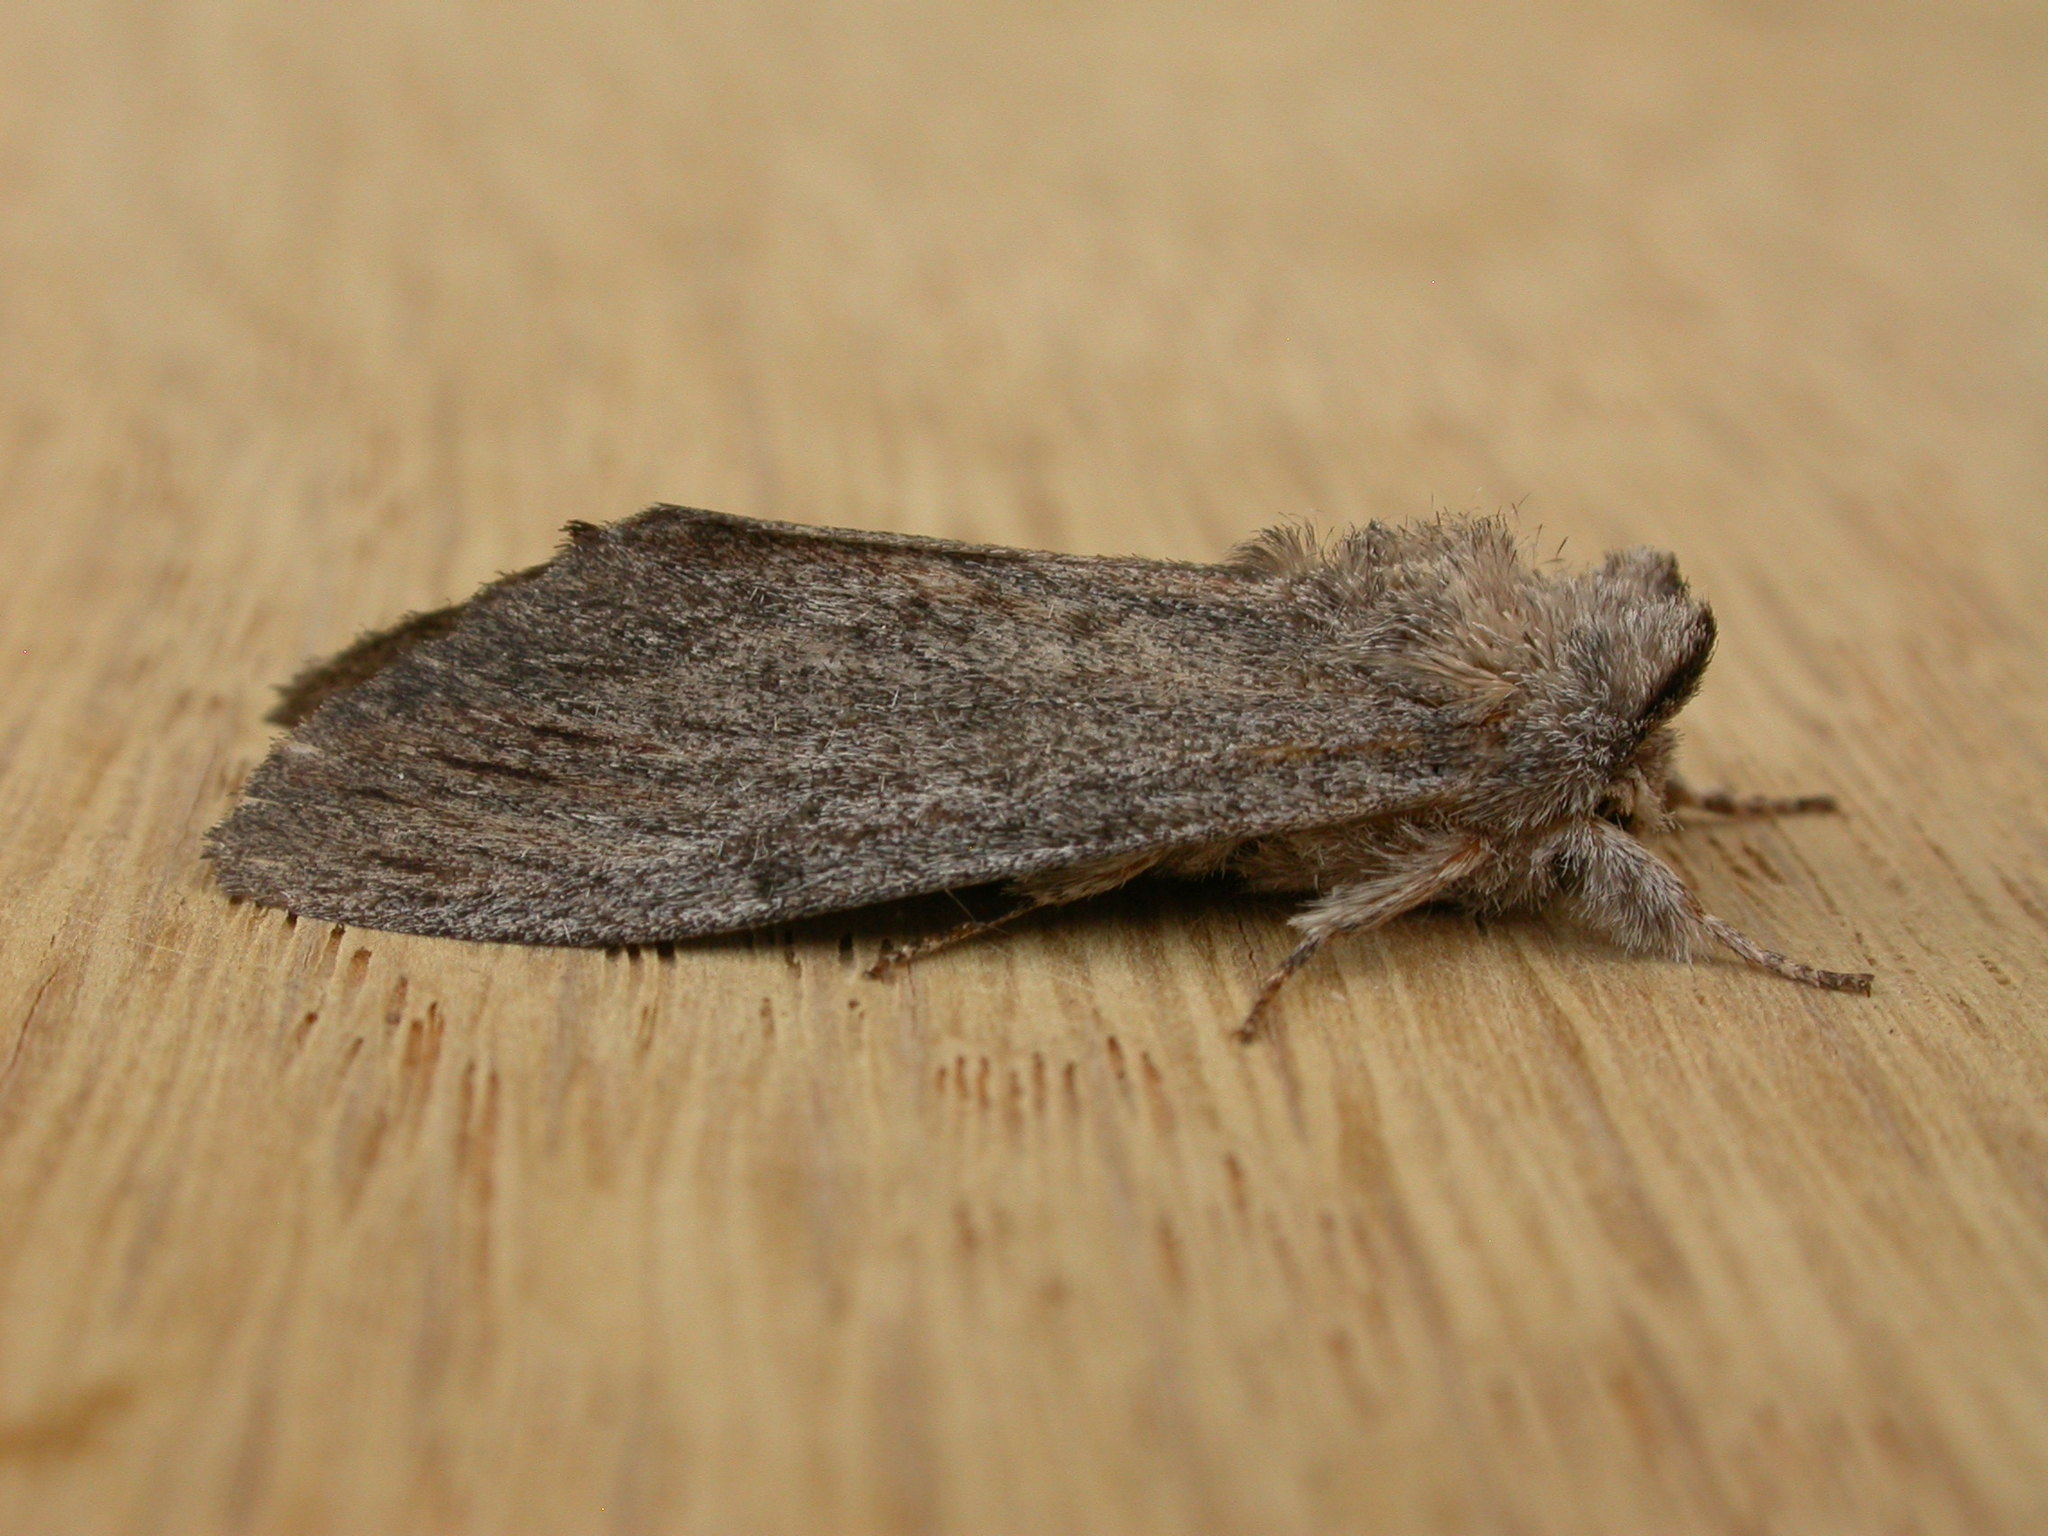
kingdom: Animalia
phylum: Arthropoda
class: Insecta
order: Lepidoptera
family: Notodontidae
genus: Destolmia
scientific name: Destolmia lineata
